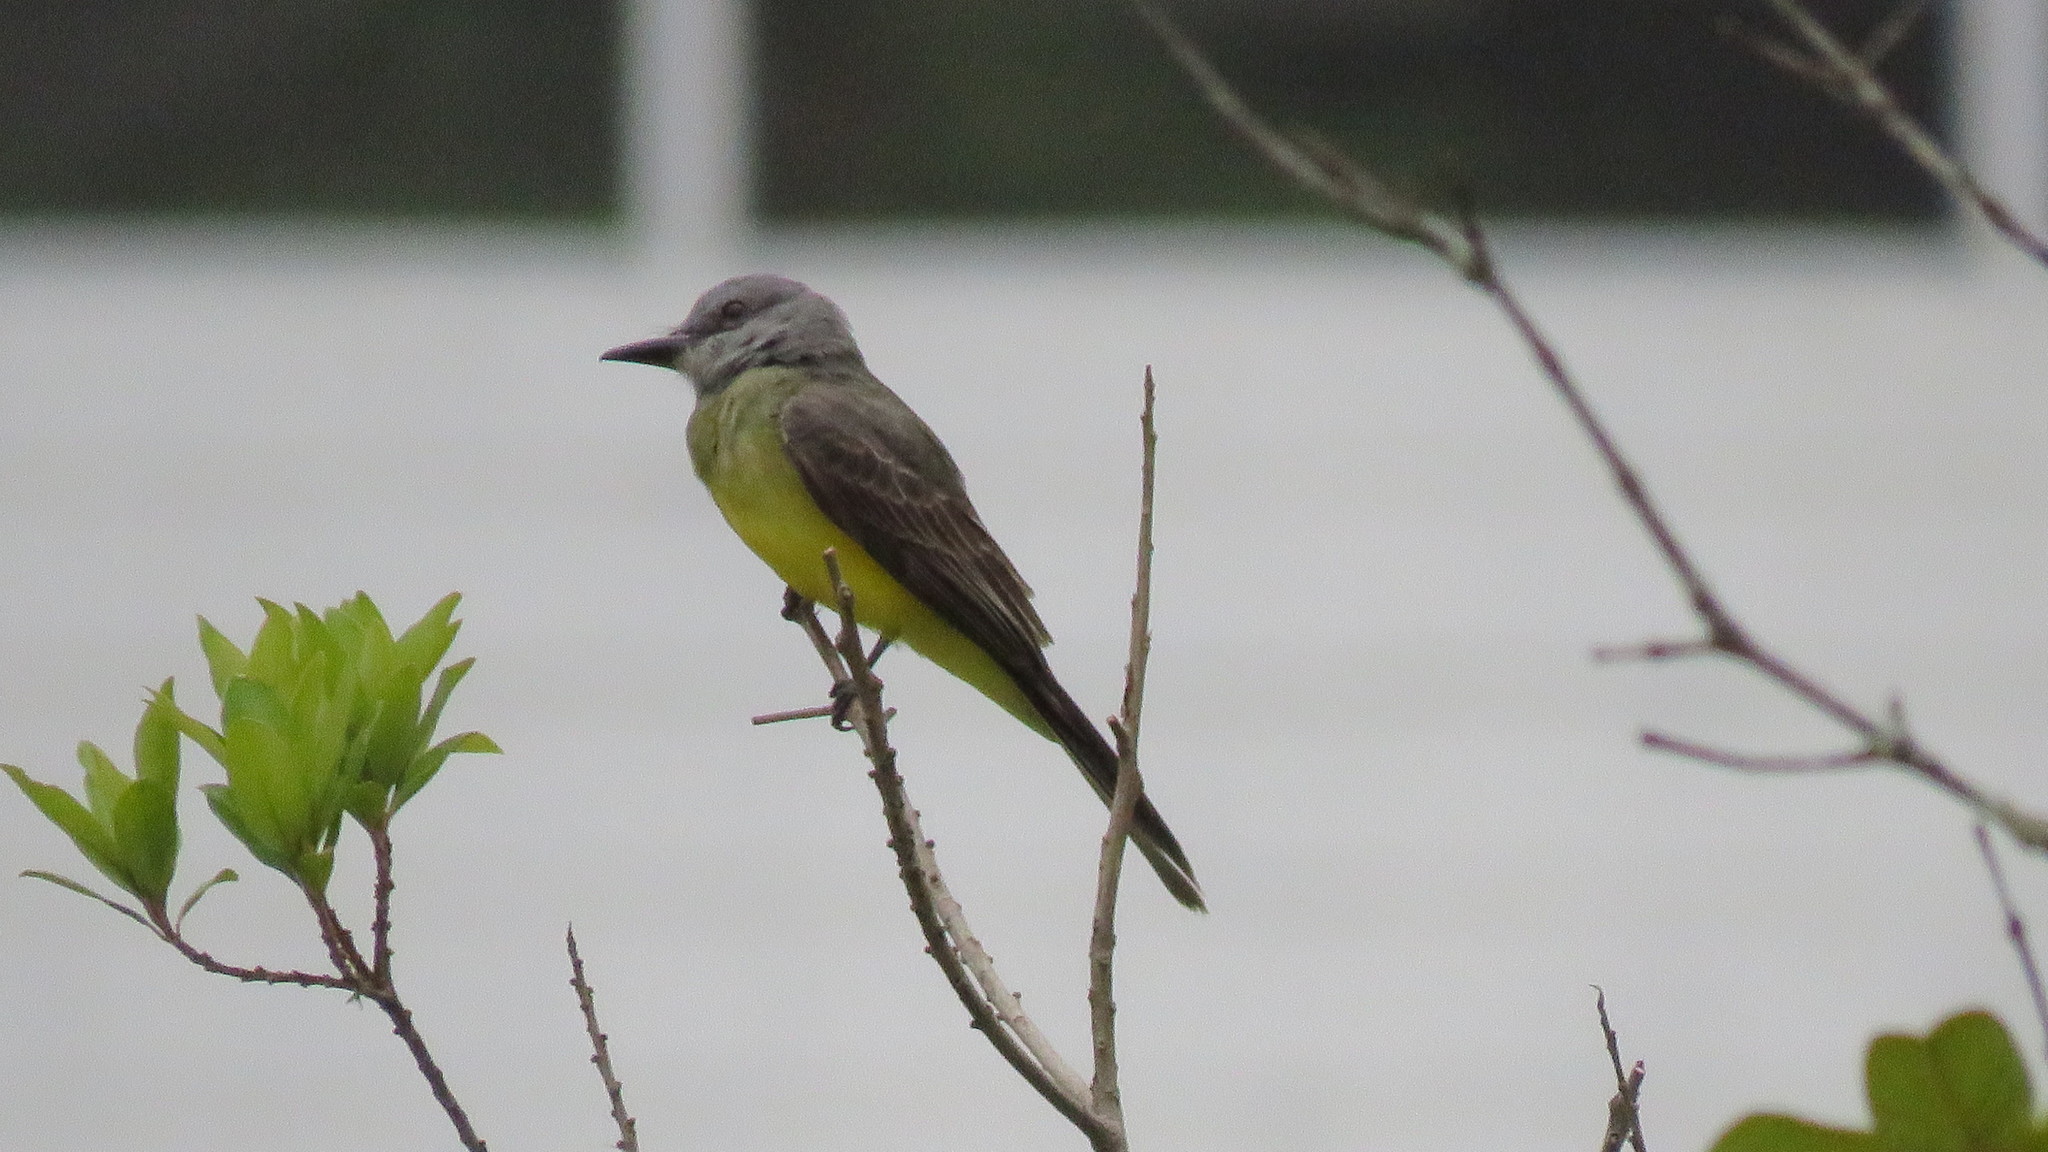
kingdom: Animalia
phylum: Chordata
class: Aves
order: Passeriformes
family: Tyrannidae
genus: Tyrannus
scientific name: Tyrannus melancholicus
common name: Tropical kingbird
